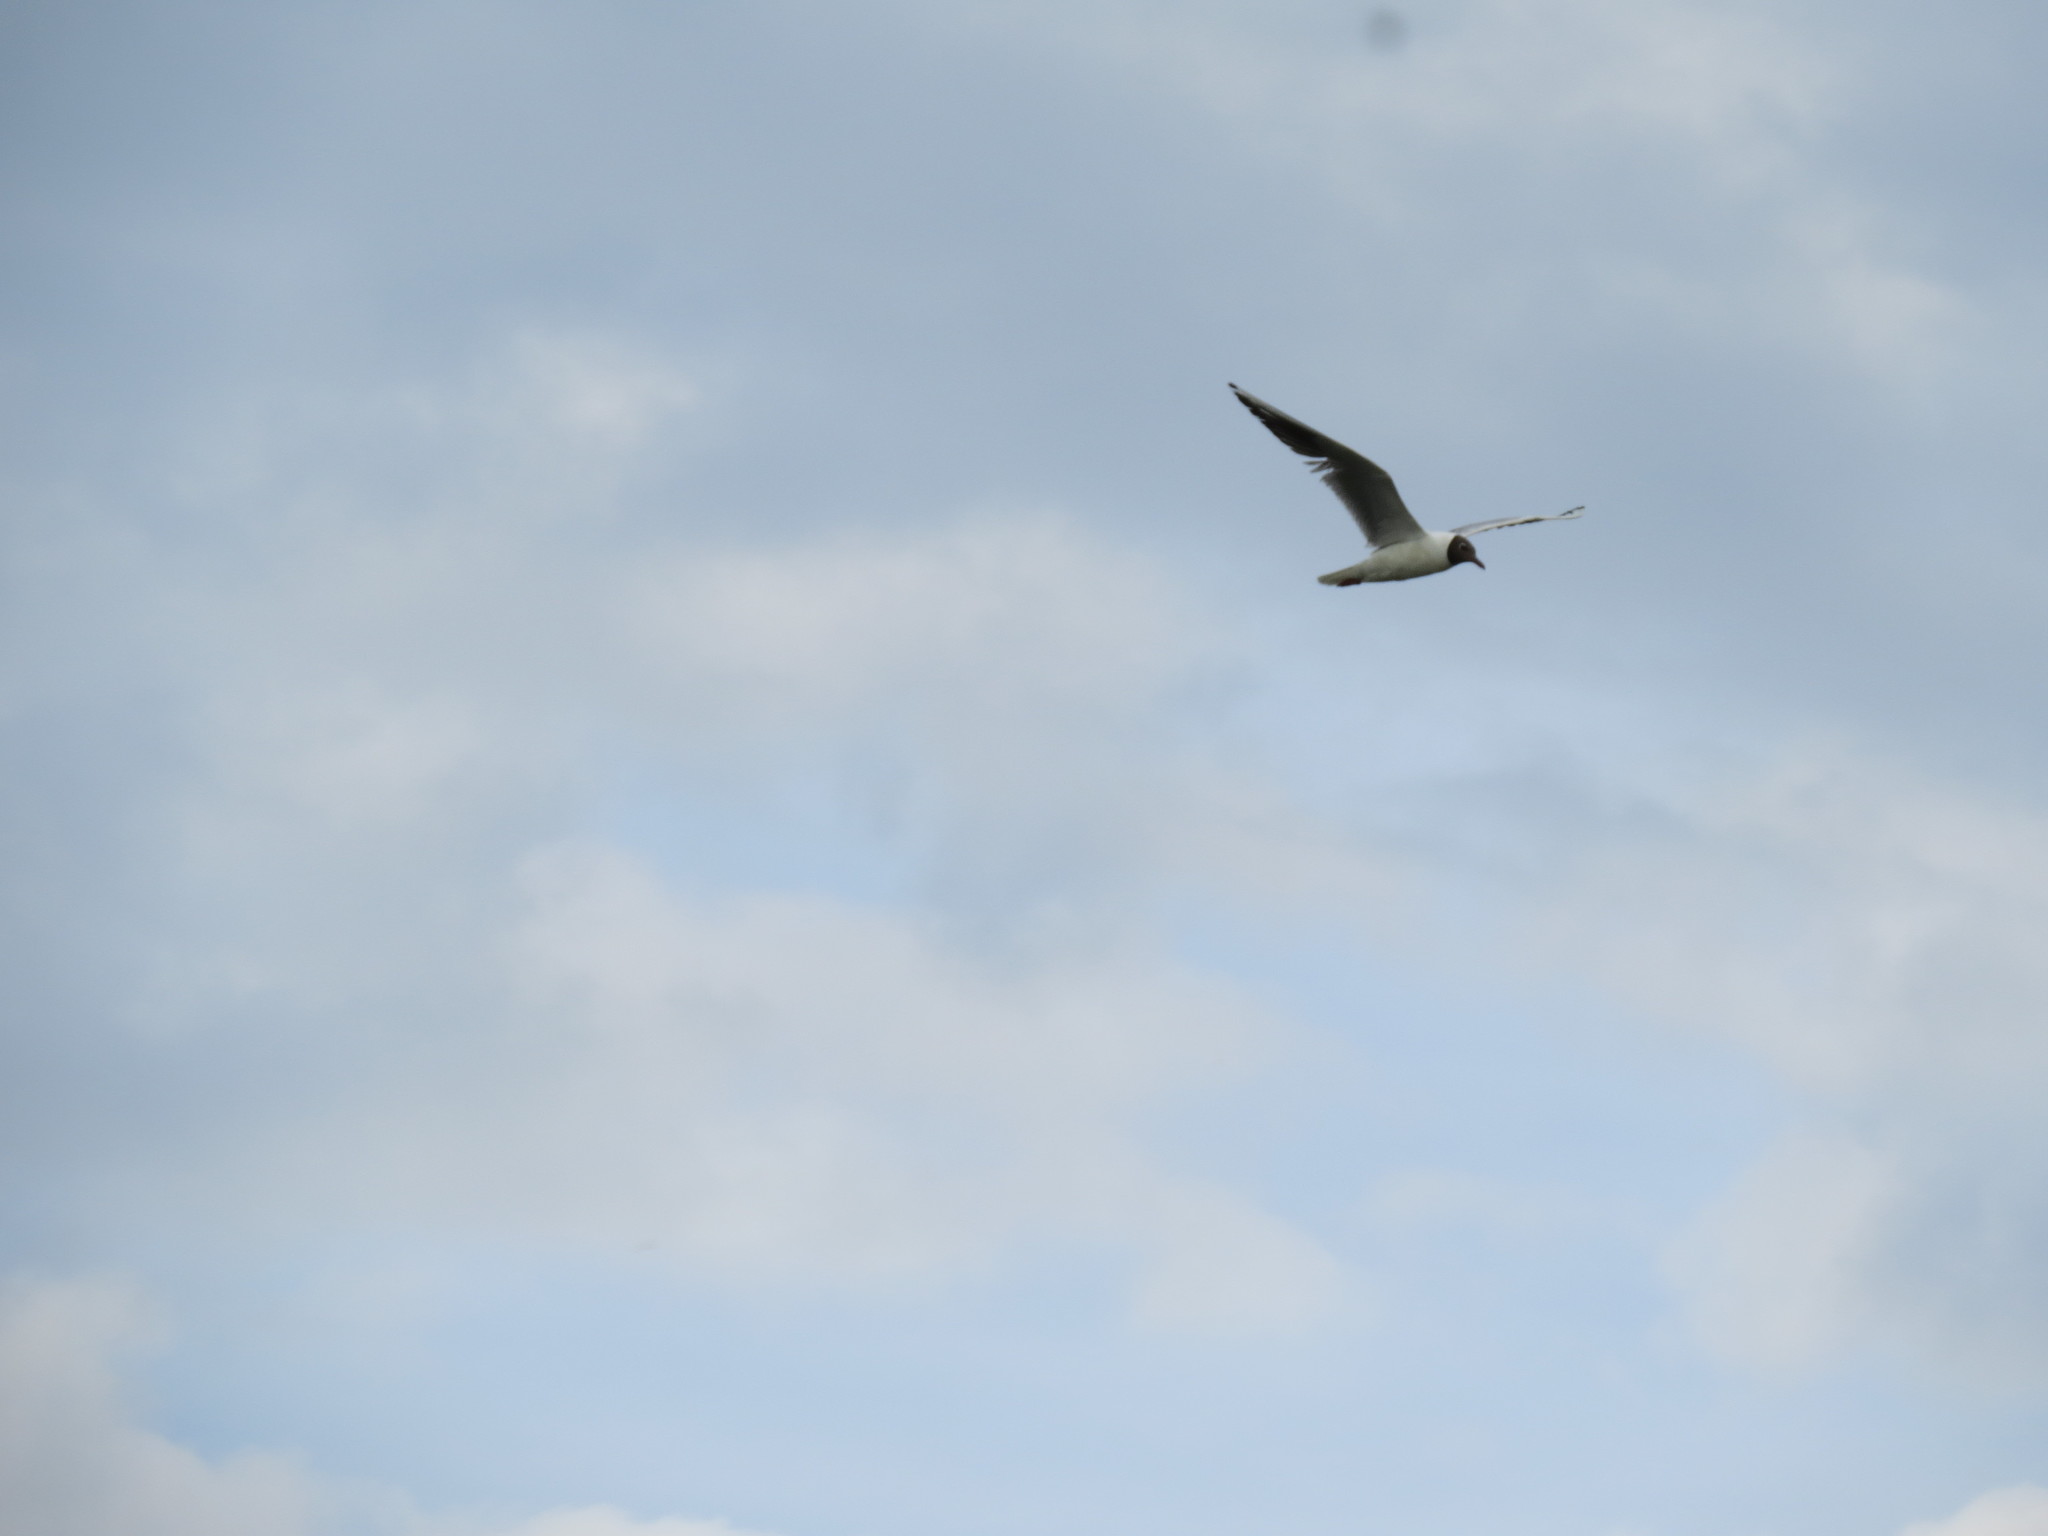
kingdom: Animalia
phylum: Chordata
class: Aves
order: Charadriiformes
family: Laridae
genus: Chroicocephalus
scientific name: Chroicocephalus ridibundus
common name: Black-headed gull
